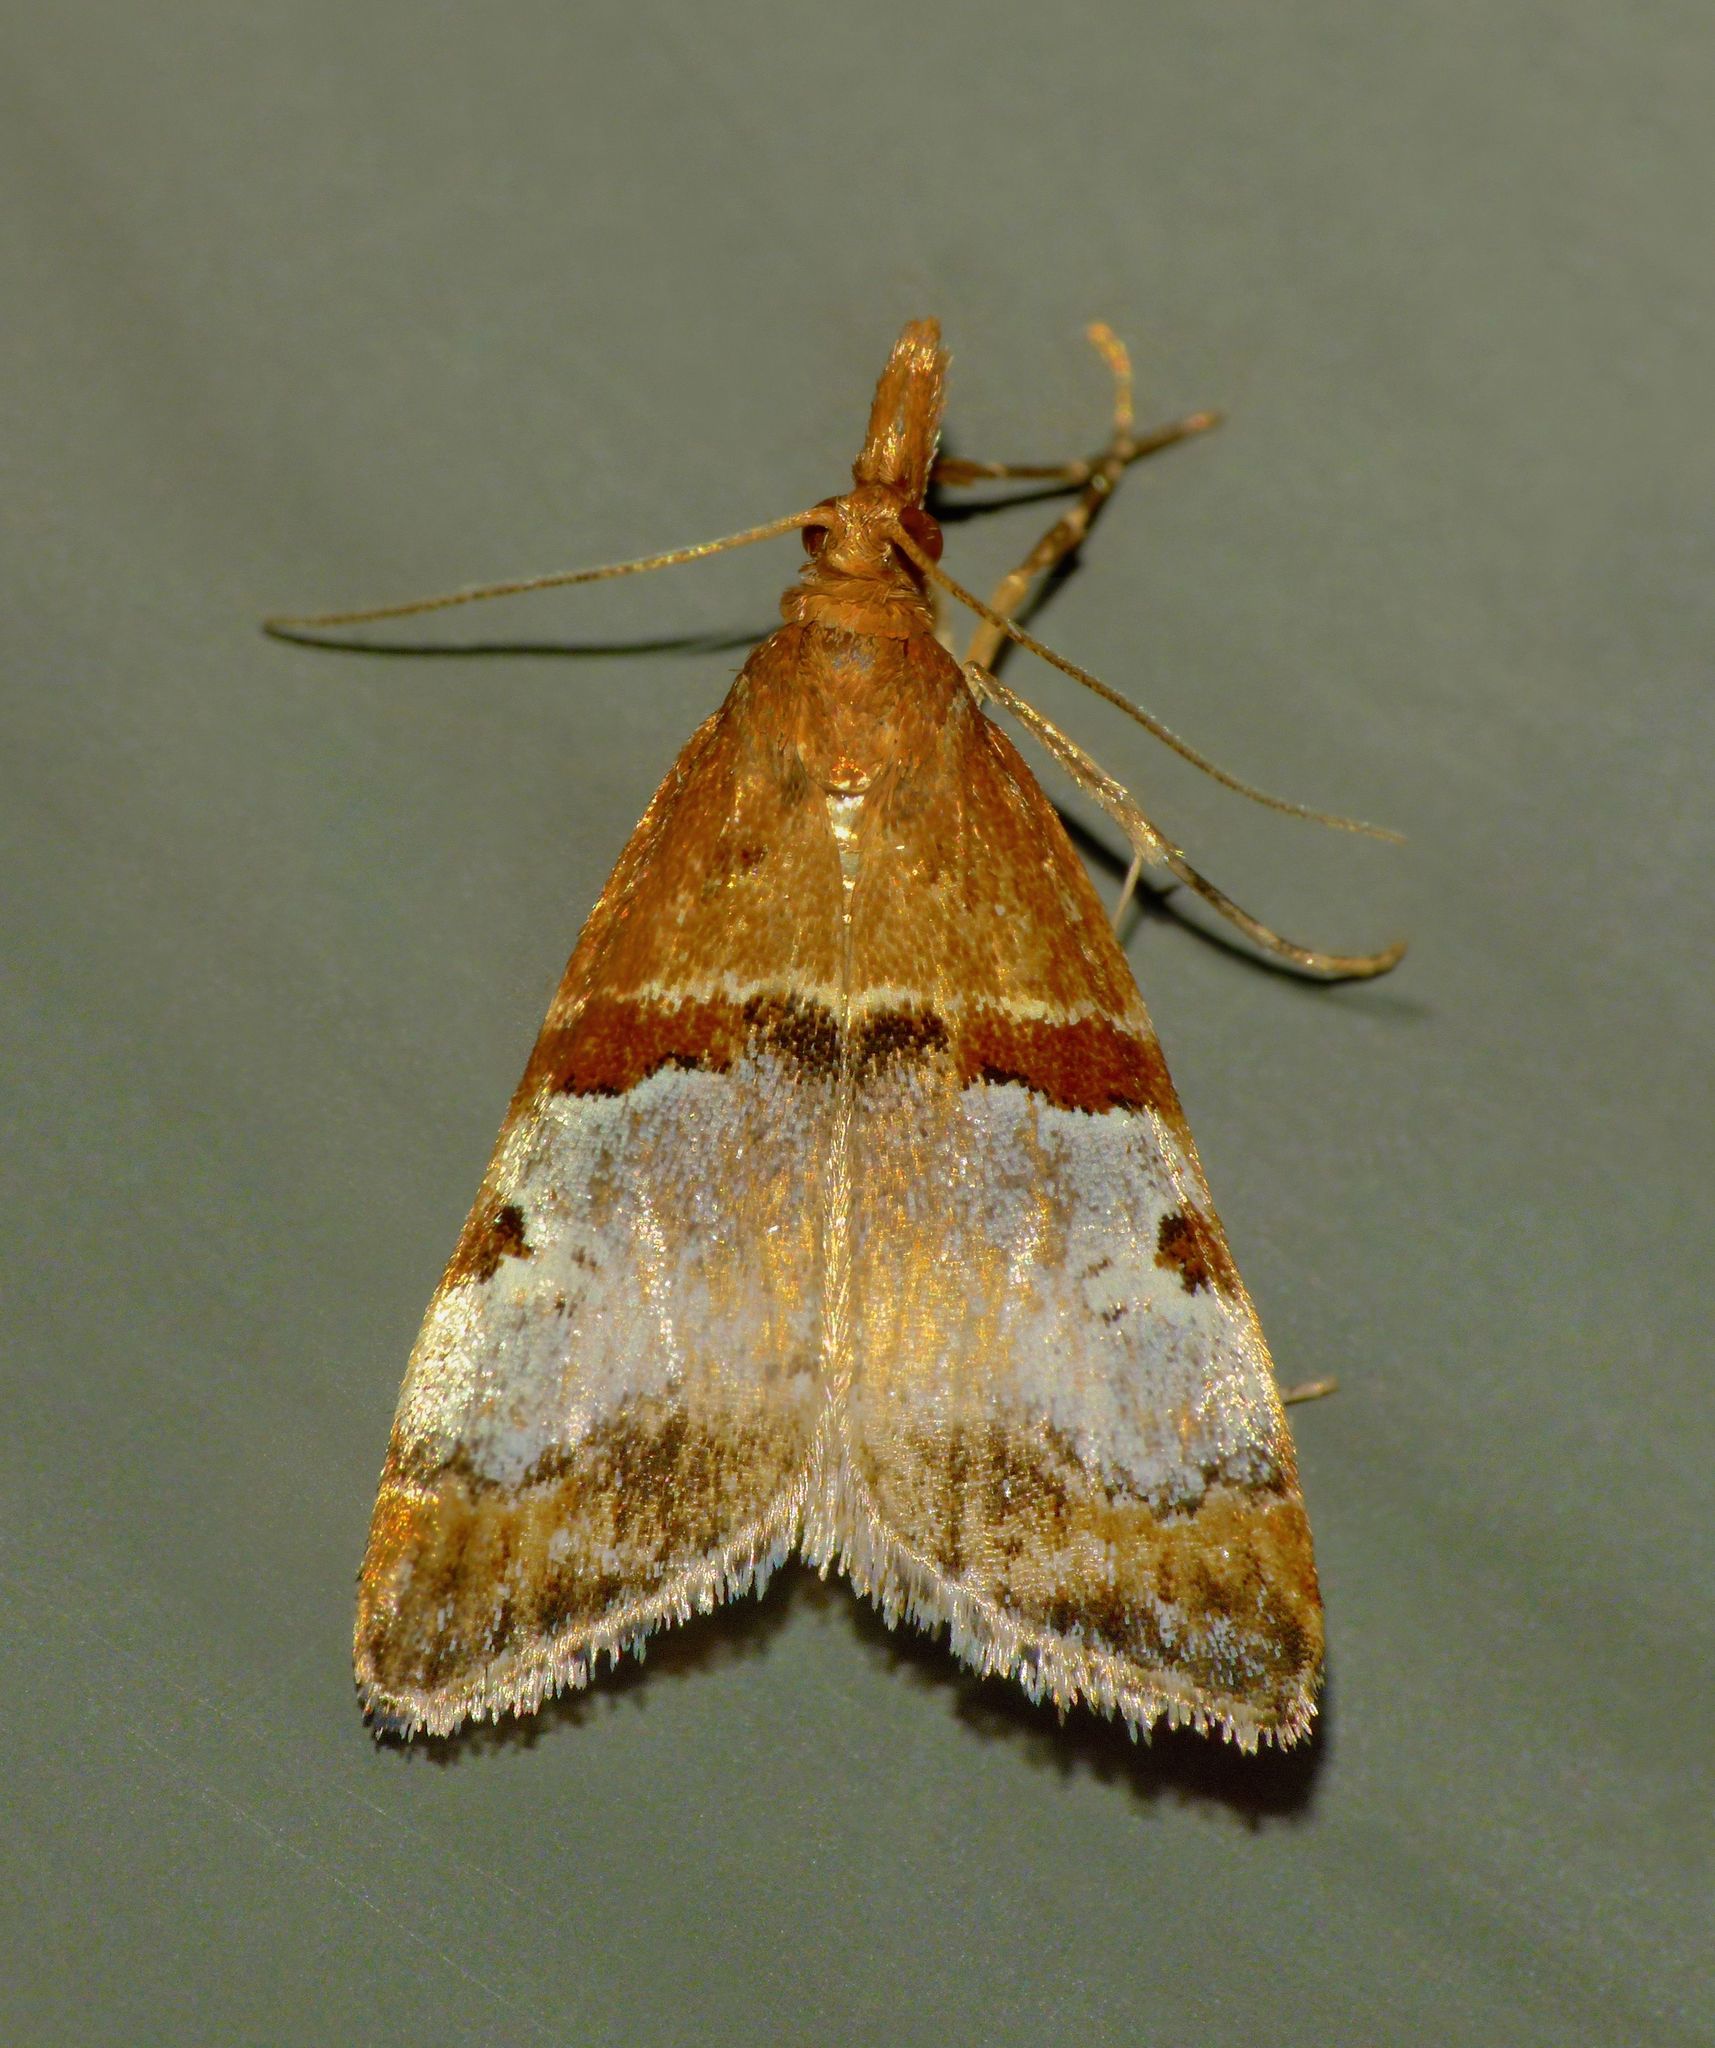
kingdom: Animalia
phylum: Arthropoda
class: Insecta
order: Lepidoptera
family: Crambidae
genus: Antiscopa
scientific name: Antiscopa epicomia
